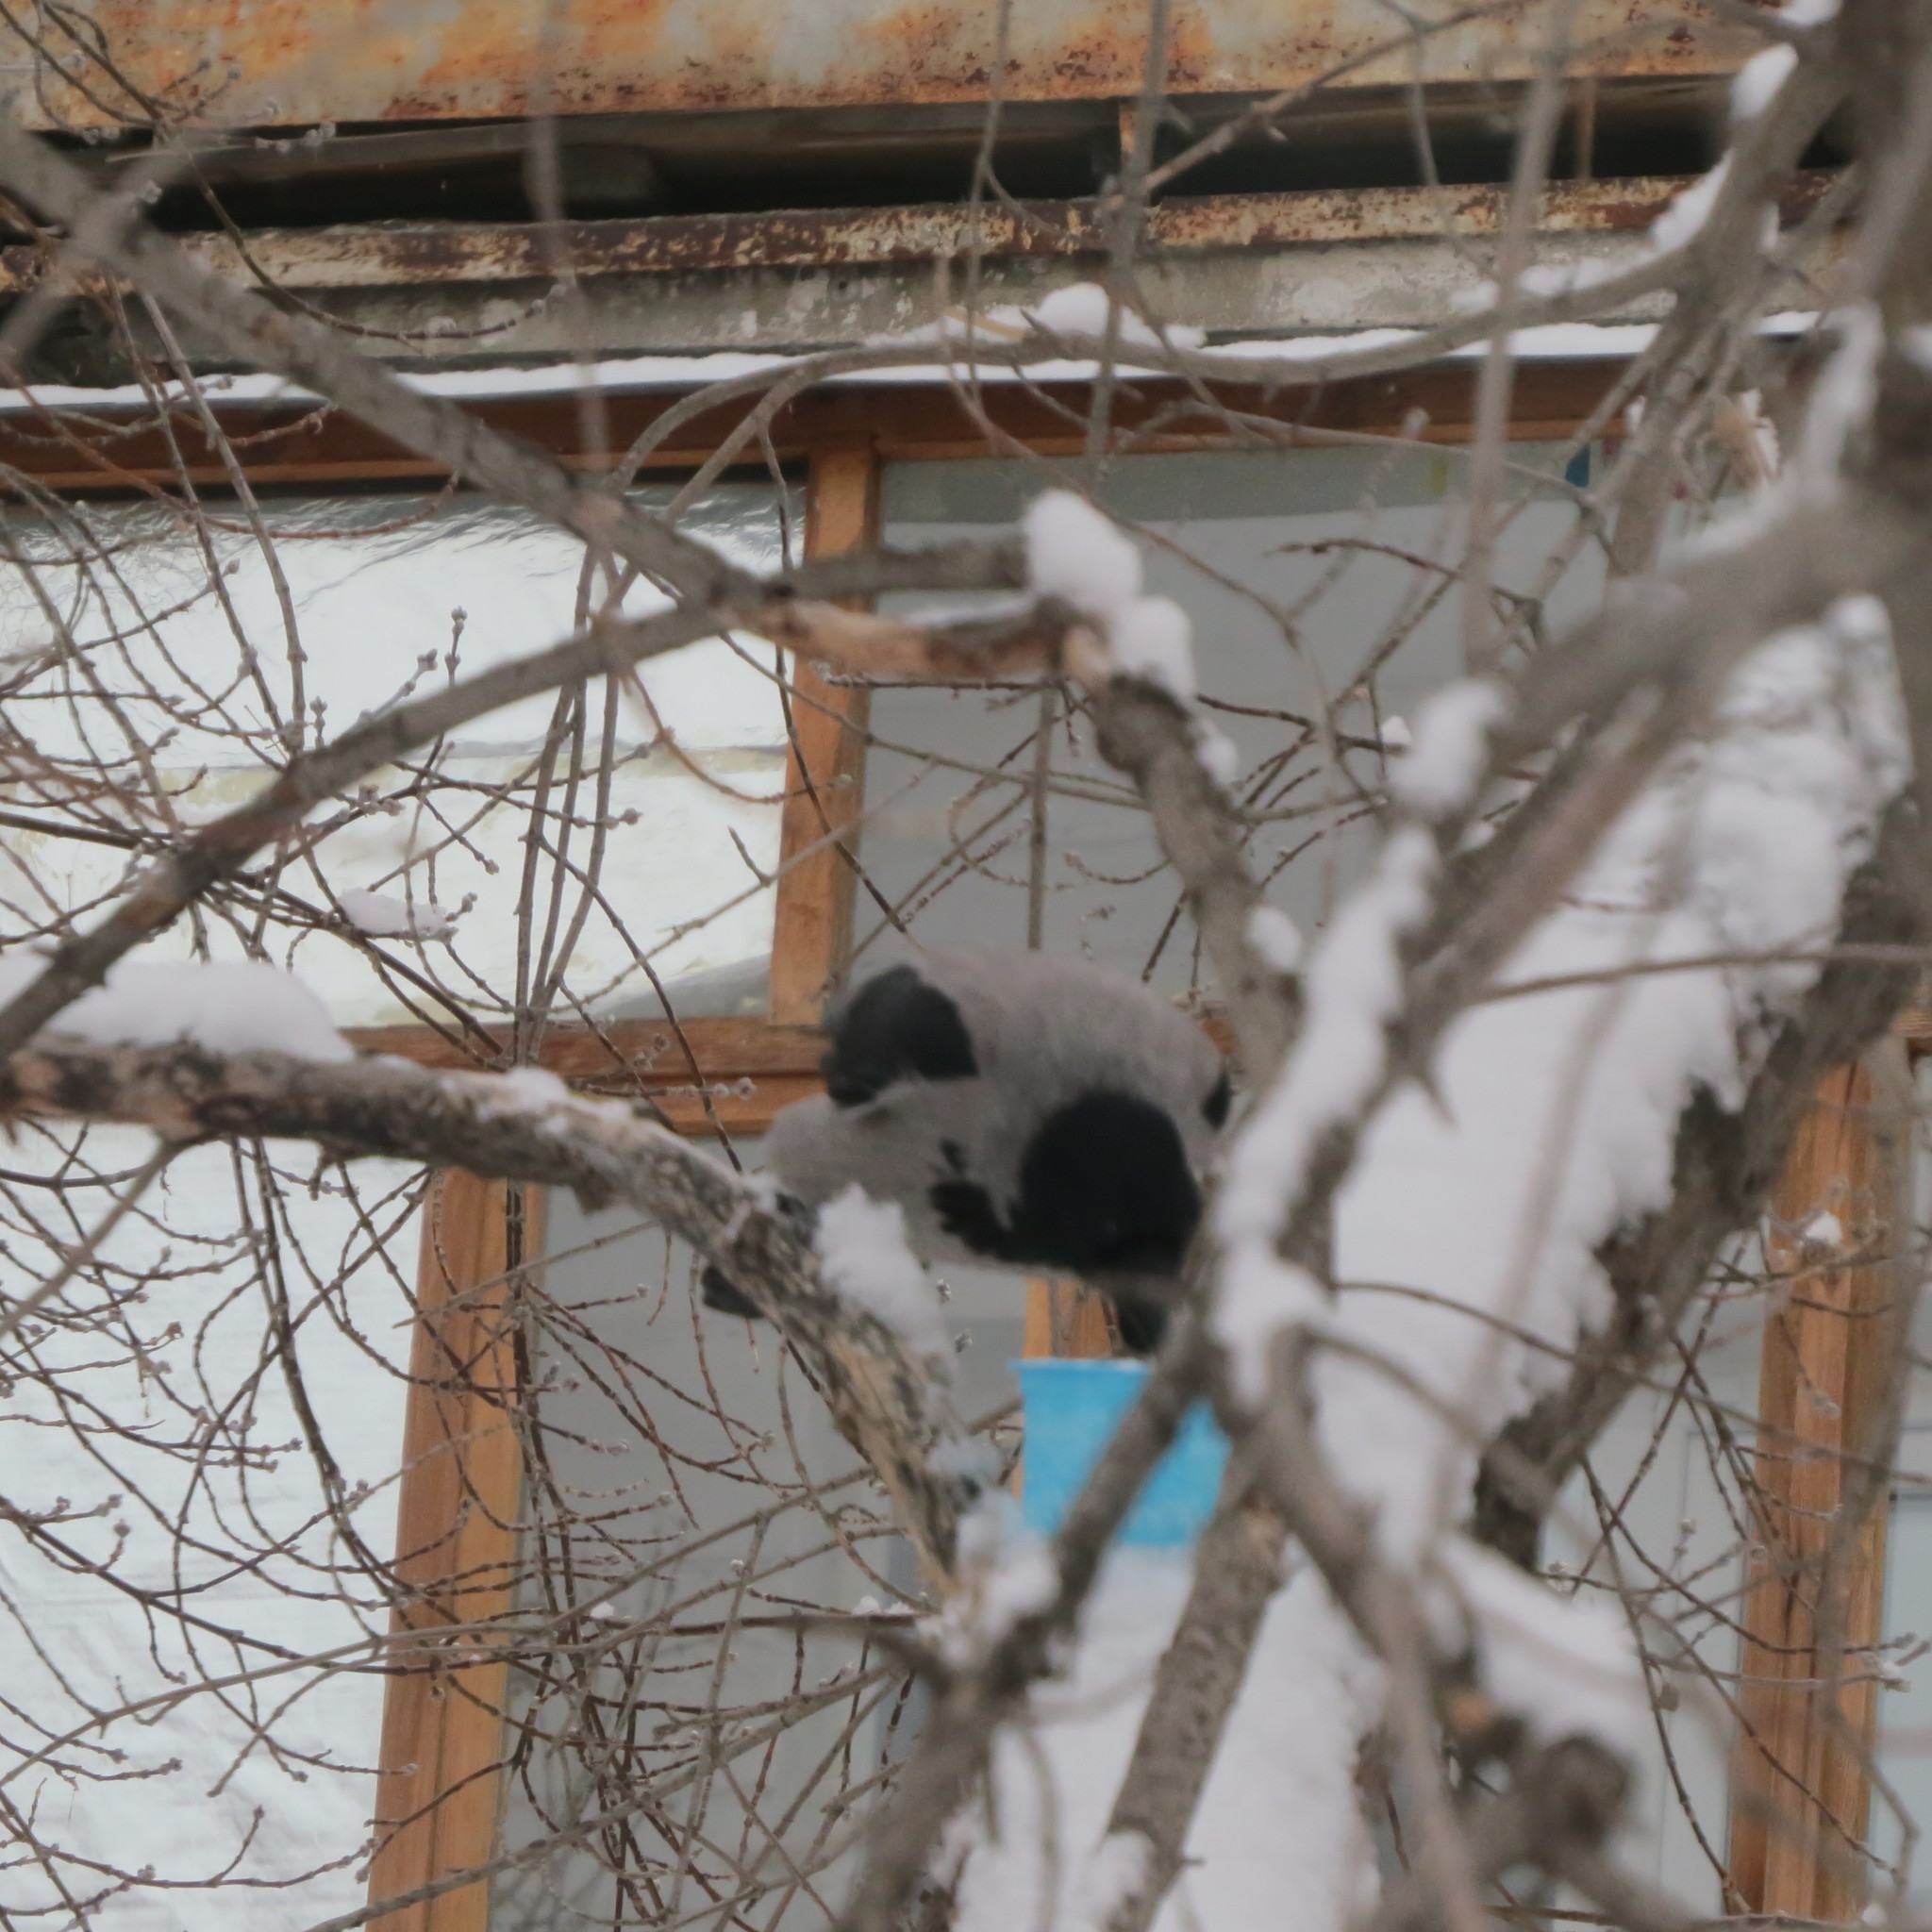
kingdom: Animalia
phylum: Chordata
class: Aves
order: Passeriformes
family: Corvidae
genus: Corvus
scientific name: Corvus cornix
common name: Hooded crow
